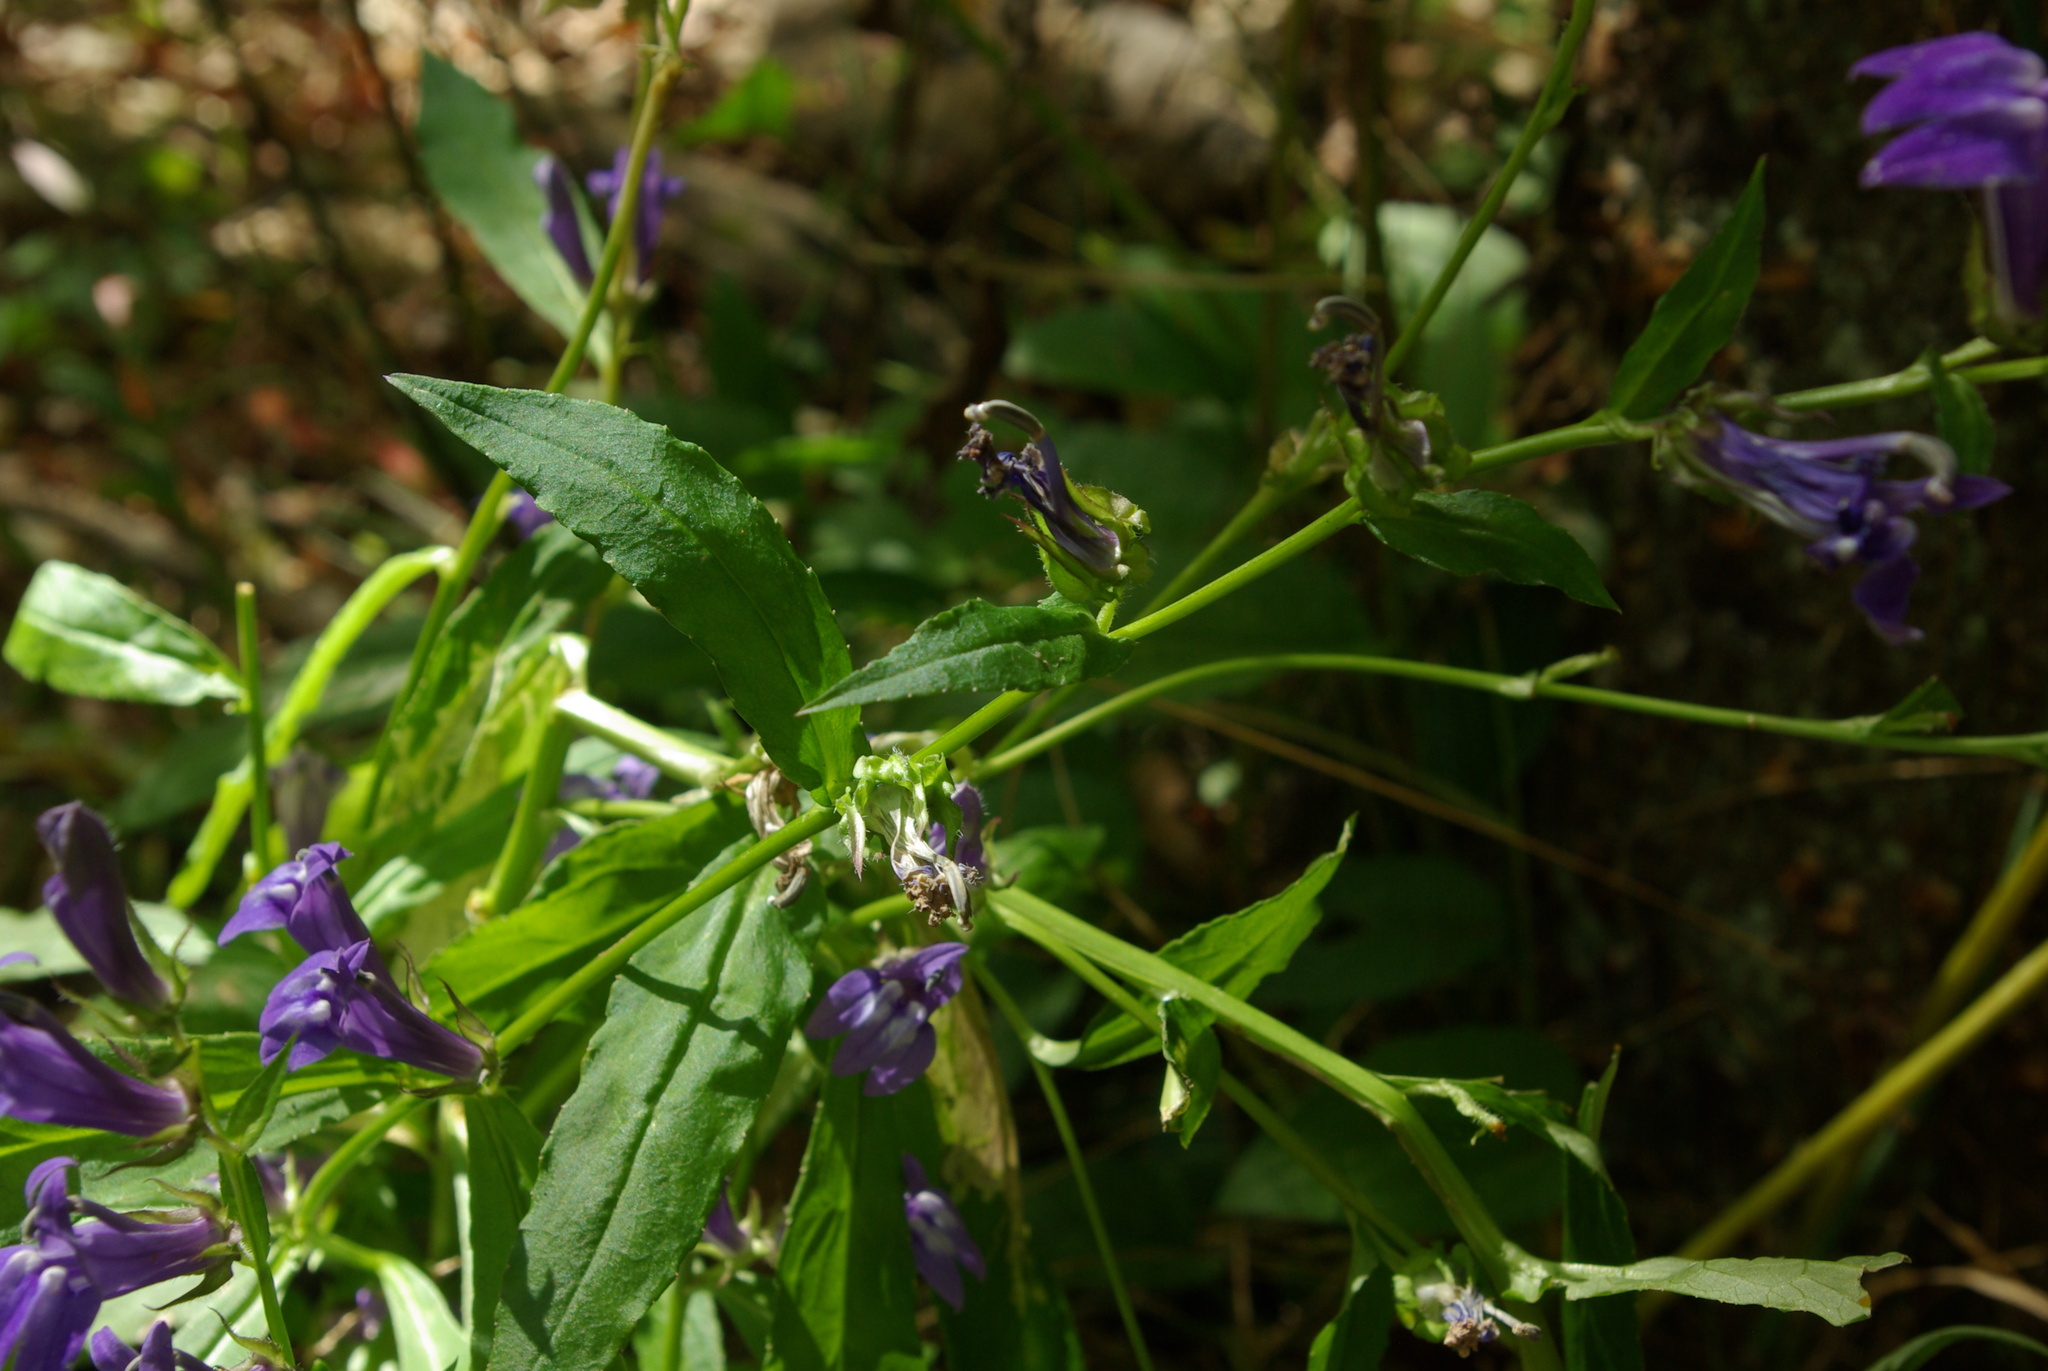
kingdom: Plantae
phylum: Tracheophyta
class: Magnoliopsida
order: Asterales
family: Campanulaceae
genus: Lobelia
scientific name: Lobelia siphilitica
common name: Great lobelia
